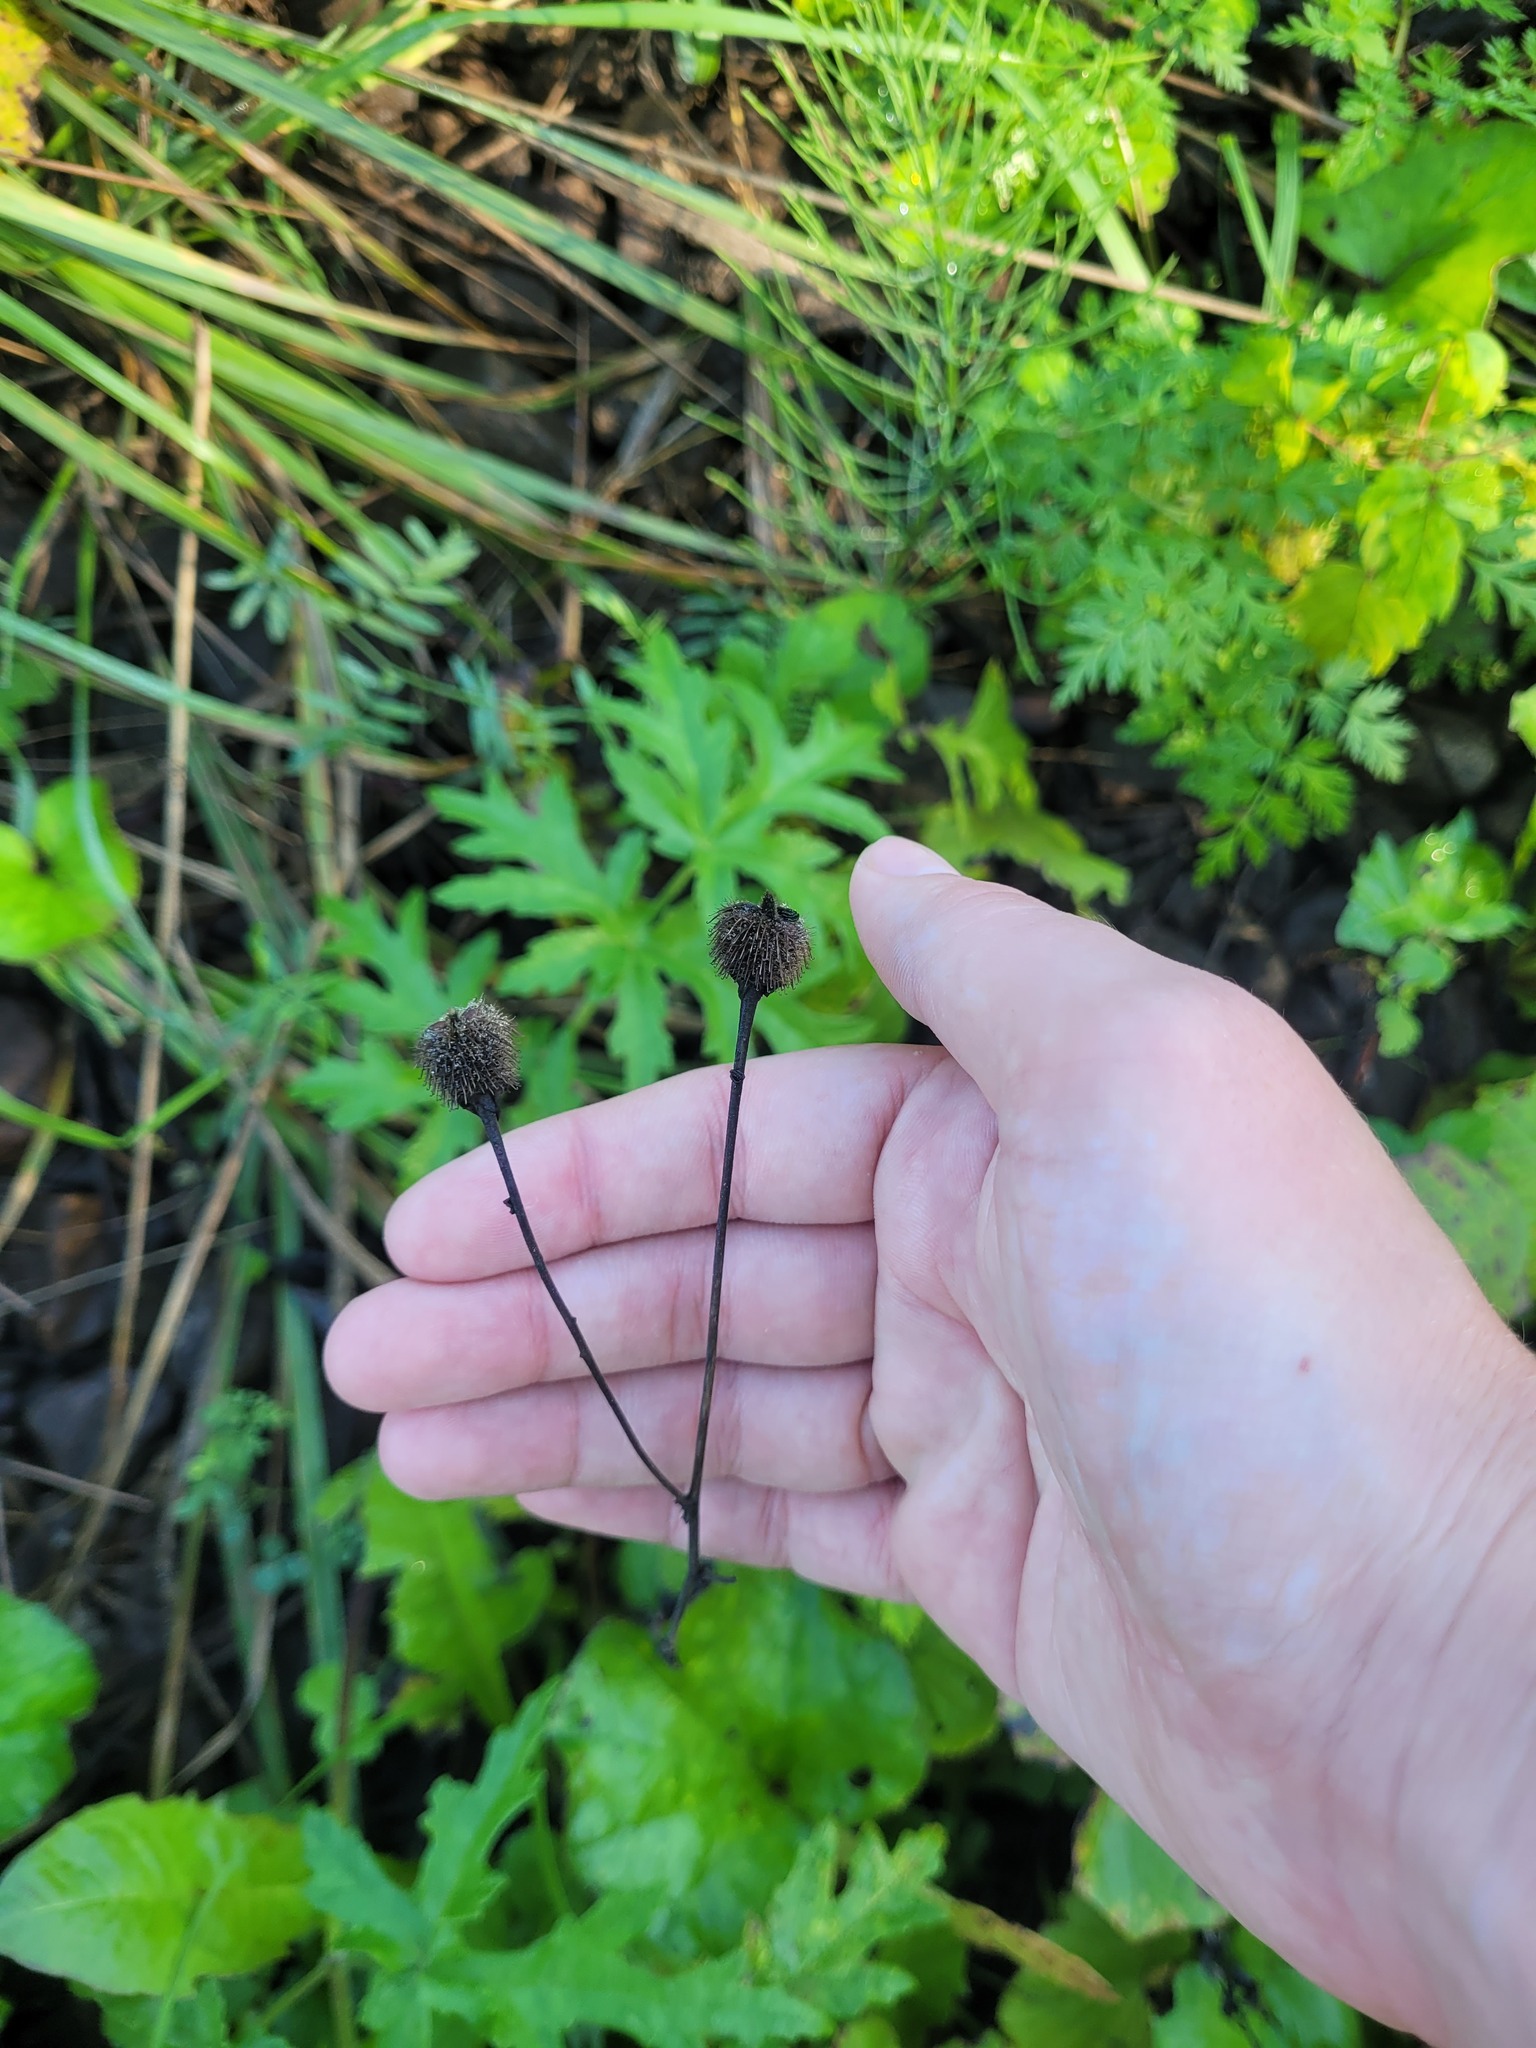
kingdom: Plantae
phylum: Tracheophyta
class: Magnoliopsida
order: Rosales
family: Rosaceae
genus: Geum
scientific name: Geum aleppicum
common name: Yellow avens
